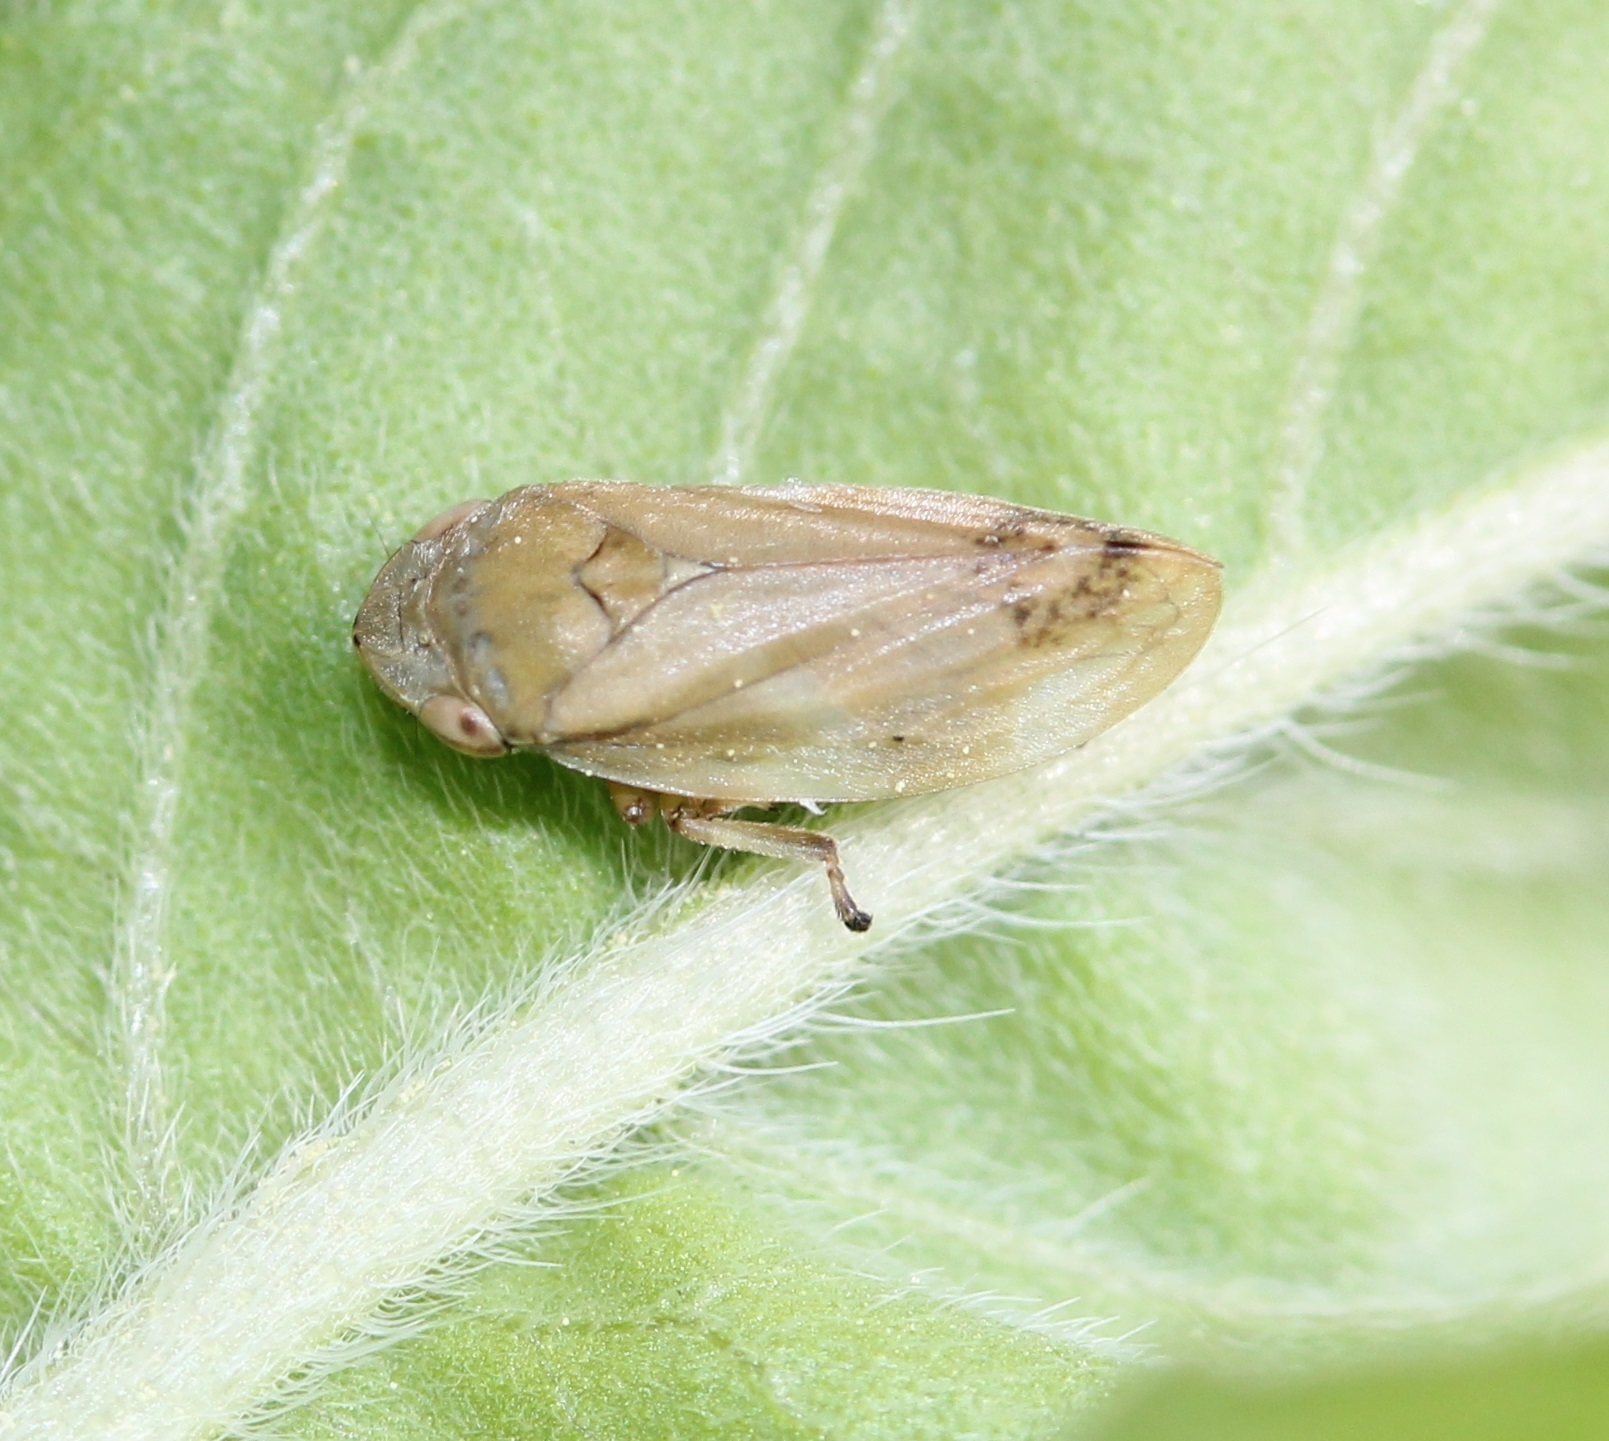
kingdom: Animalia
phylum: Arthropoda
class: Insecta
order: Hemiptera
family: Aphrophoridae
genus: Philaenus
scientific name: Philaenus spumarius
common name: Meadow spittlebug
